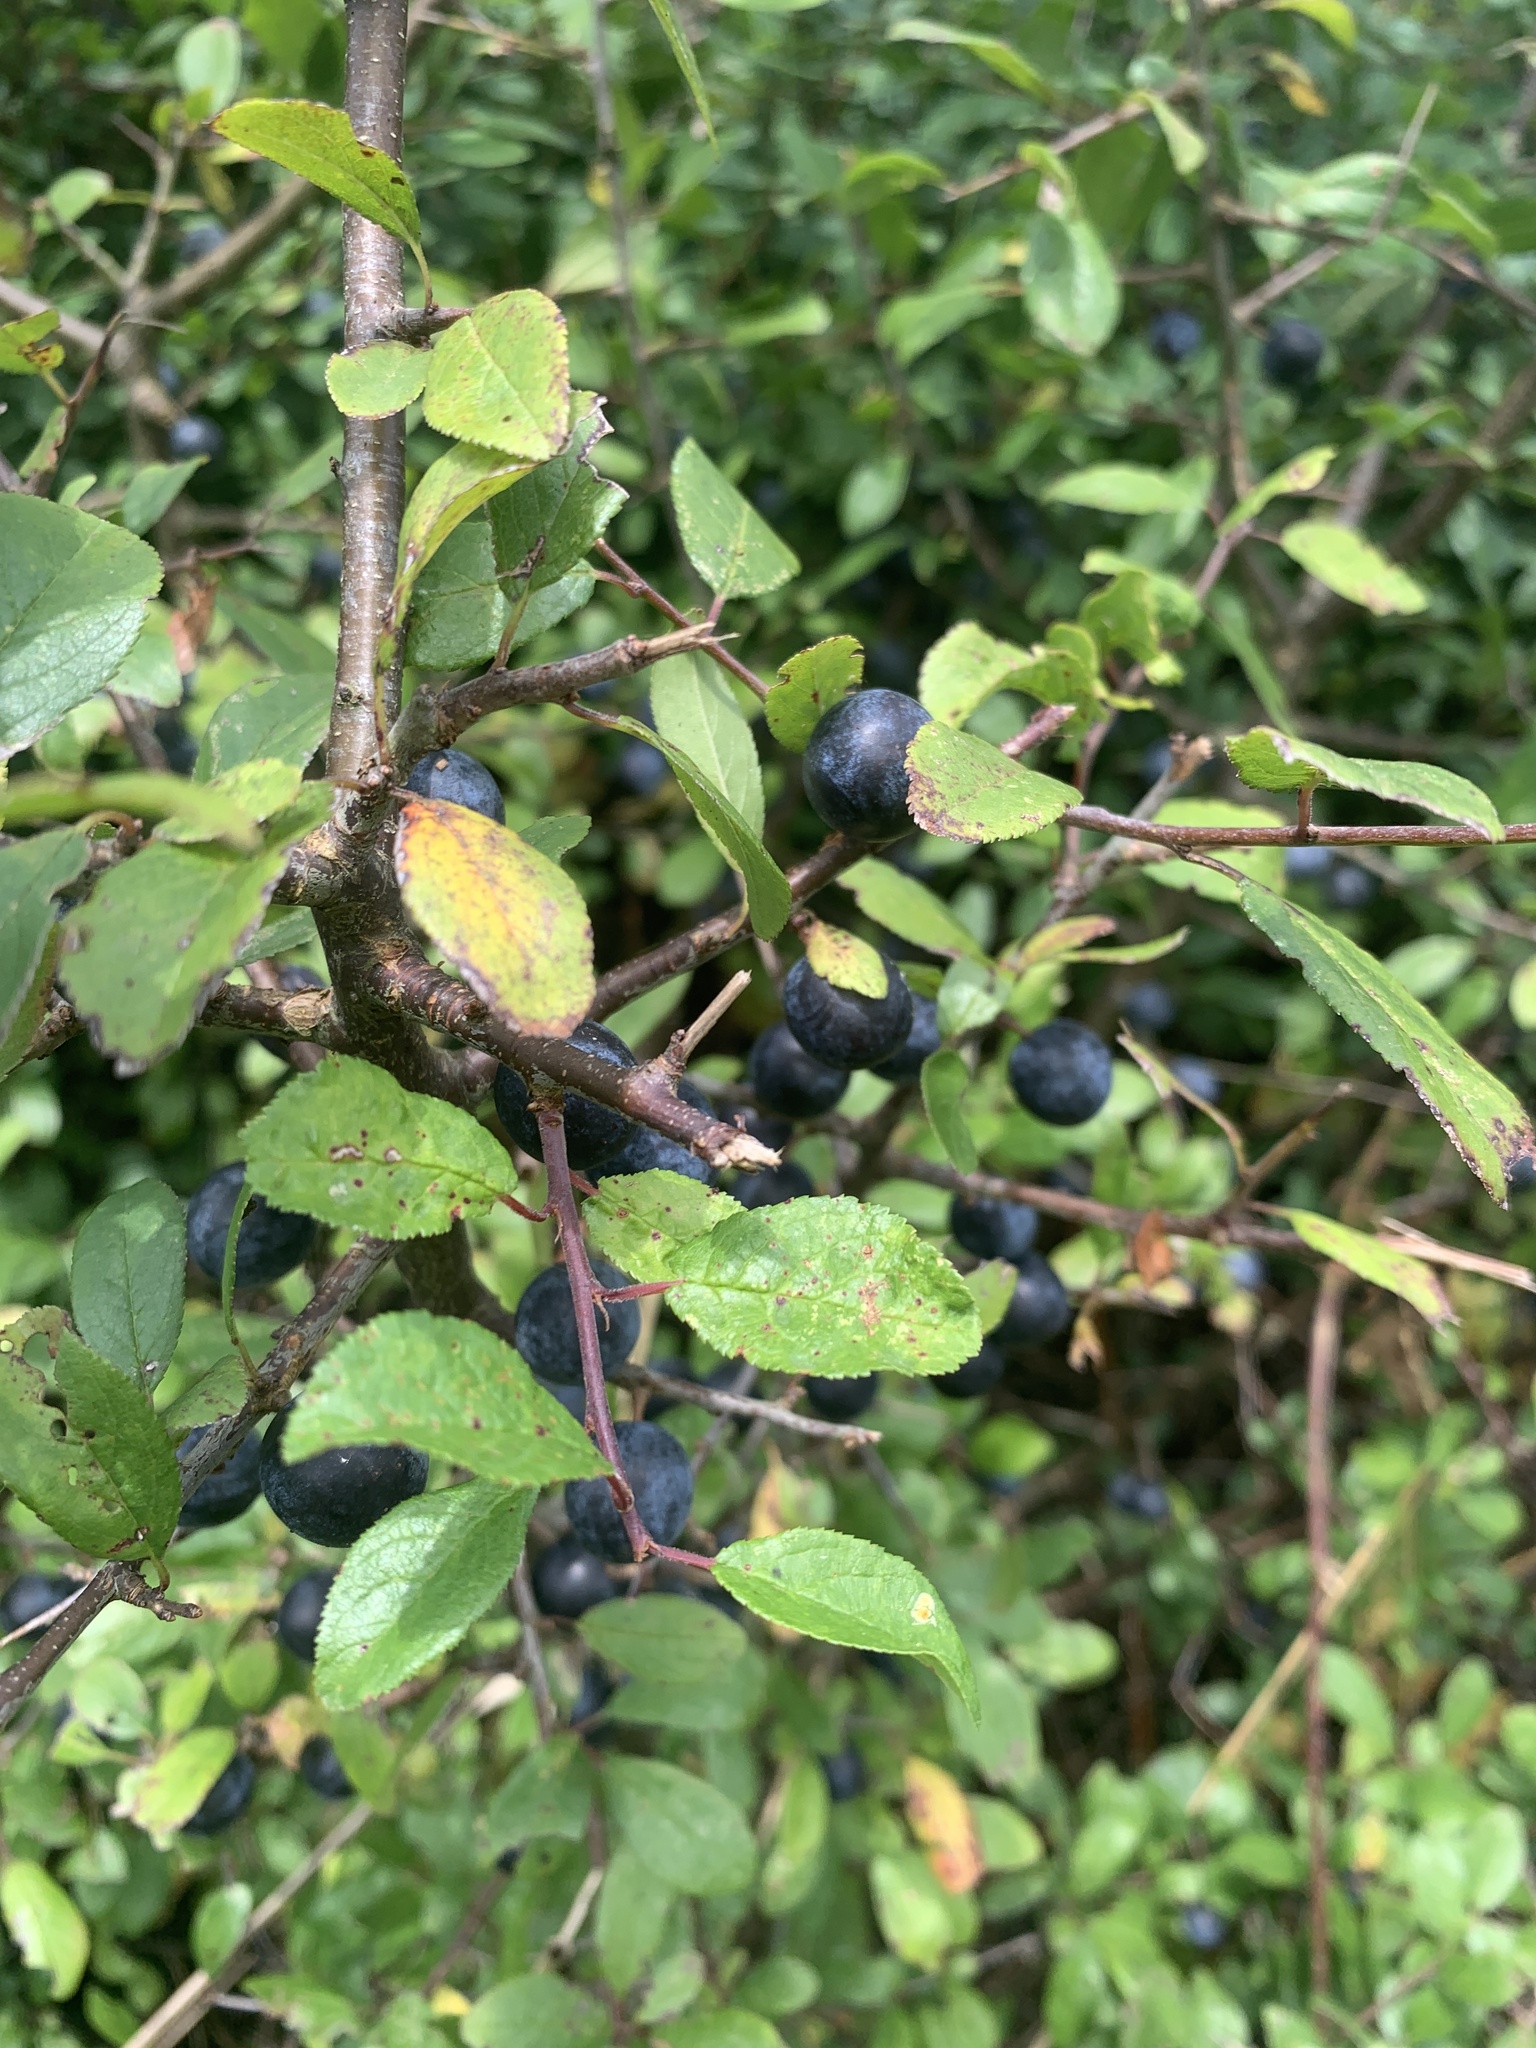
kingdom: Plantae
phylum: Tracheophyta
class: Magnoliopsida
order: Rosales
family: Rosaceae
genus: Prunus
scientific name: Prunus spinosa
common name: Blackthorn
